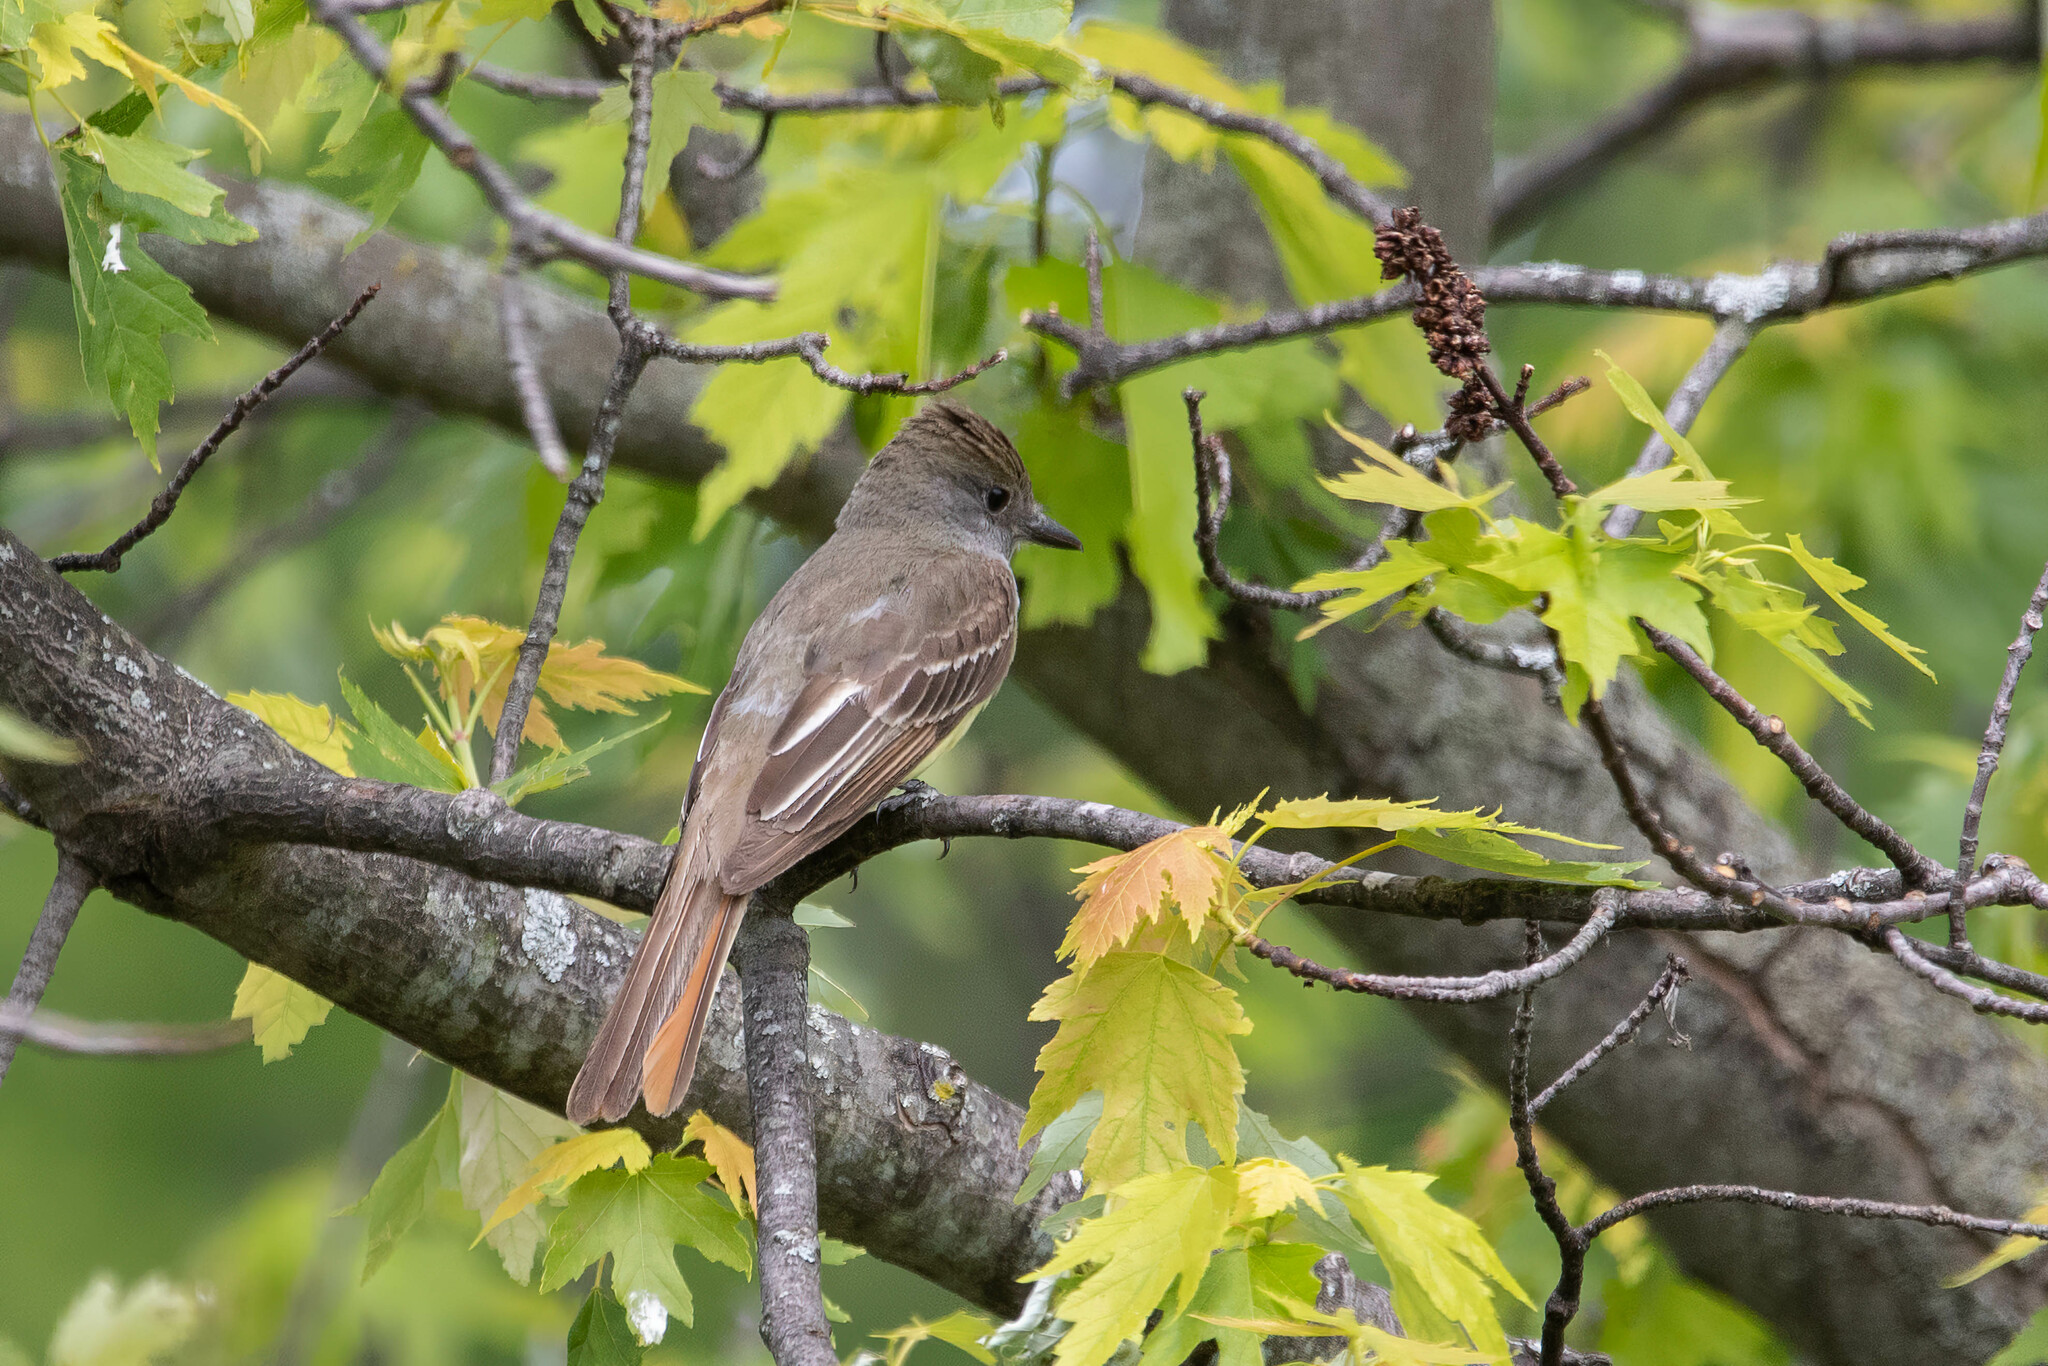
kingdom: Animalia
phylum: Chordata
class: Aves
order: Passeriformes
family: Tyrannidae
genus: Myiarchus
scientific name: Myiarchus crinitus
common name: Great crested flycatcher
